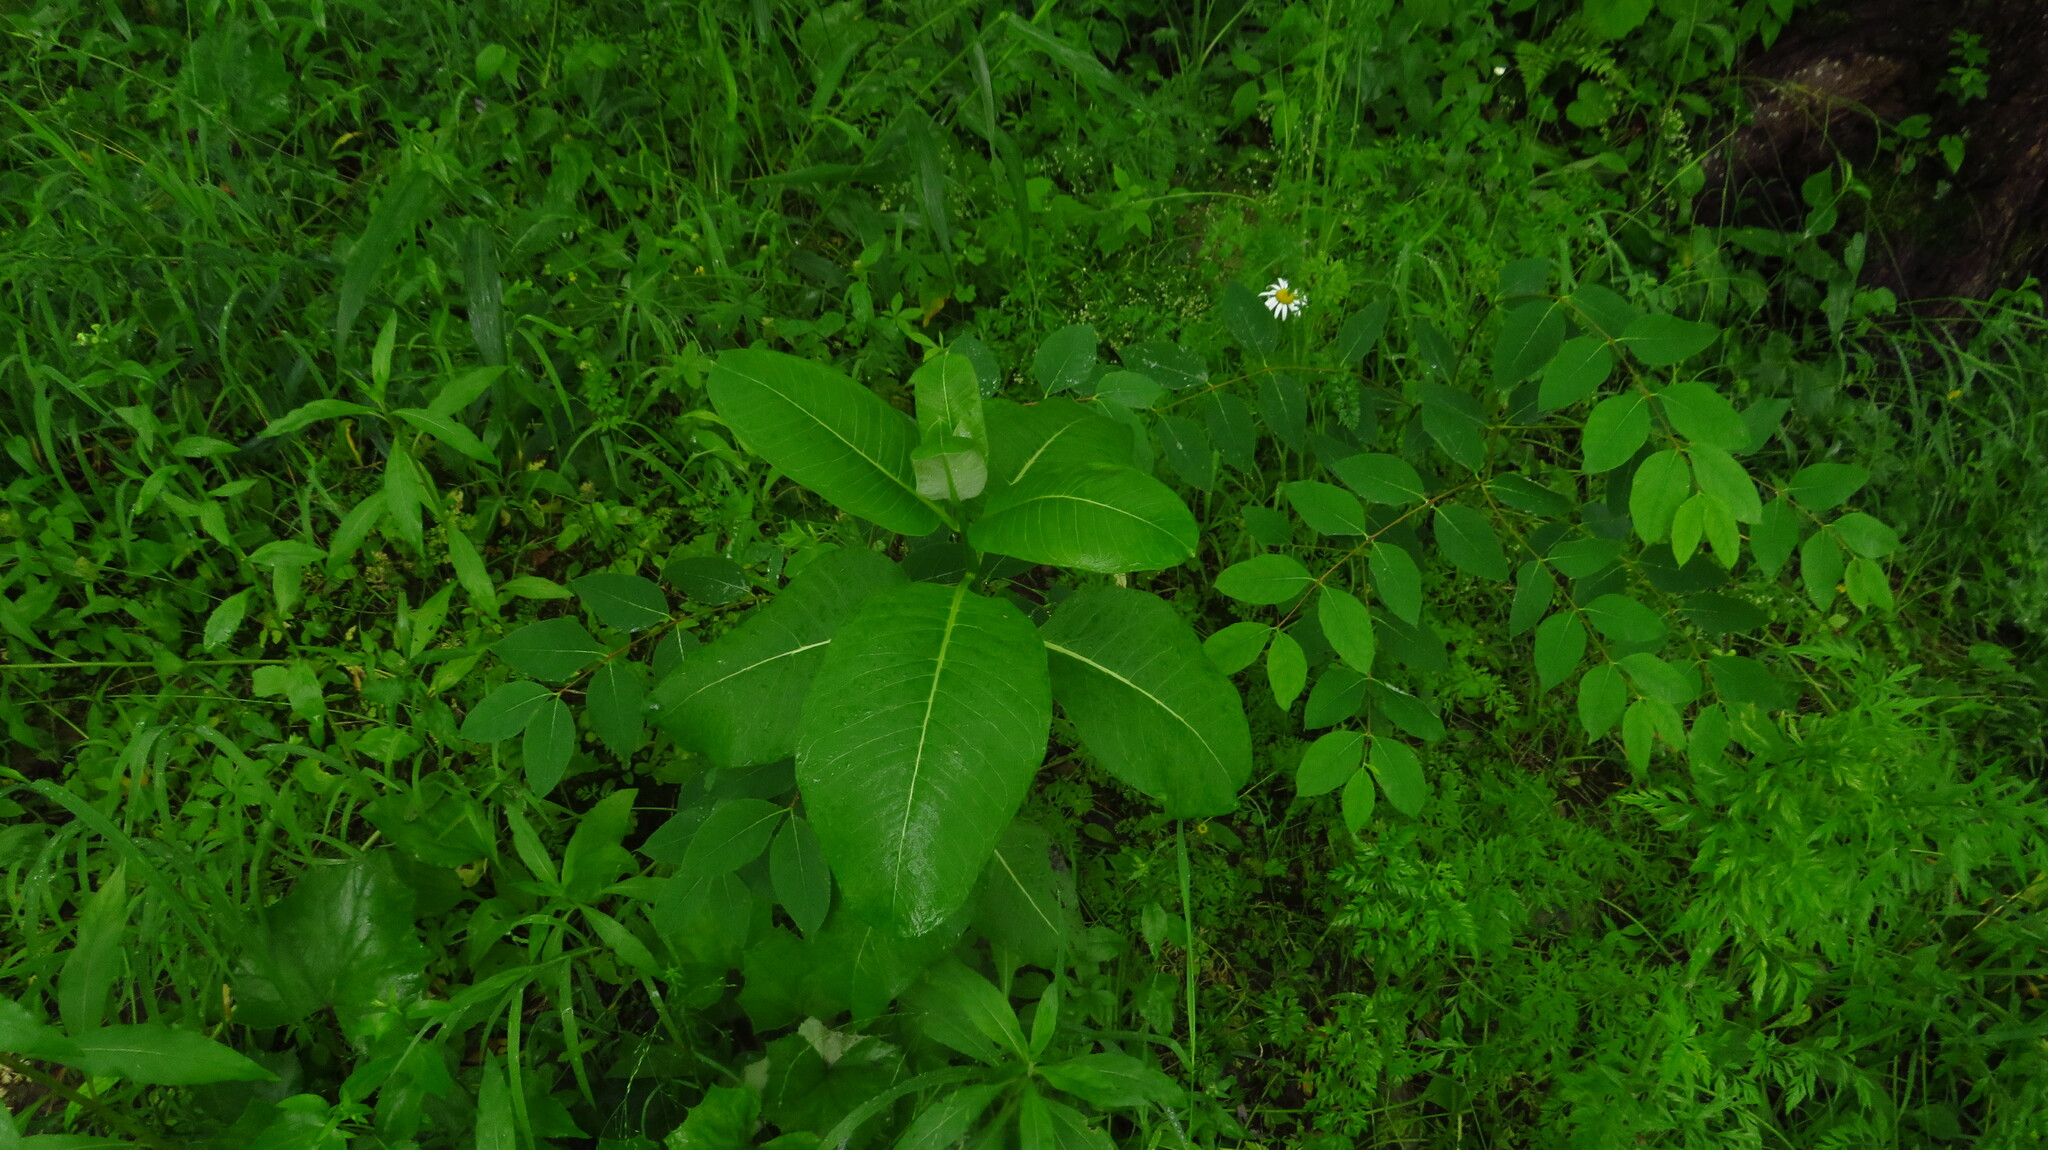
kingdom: Plantae
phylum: Tracheophyta
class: Magnoliopsida
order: Gentianales
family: Apocynaceae
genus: Asclepias
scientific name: Asclepias syriaca
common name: Common milkweed
